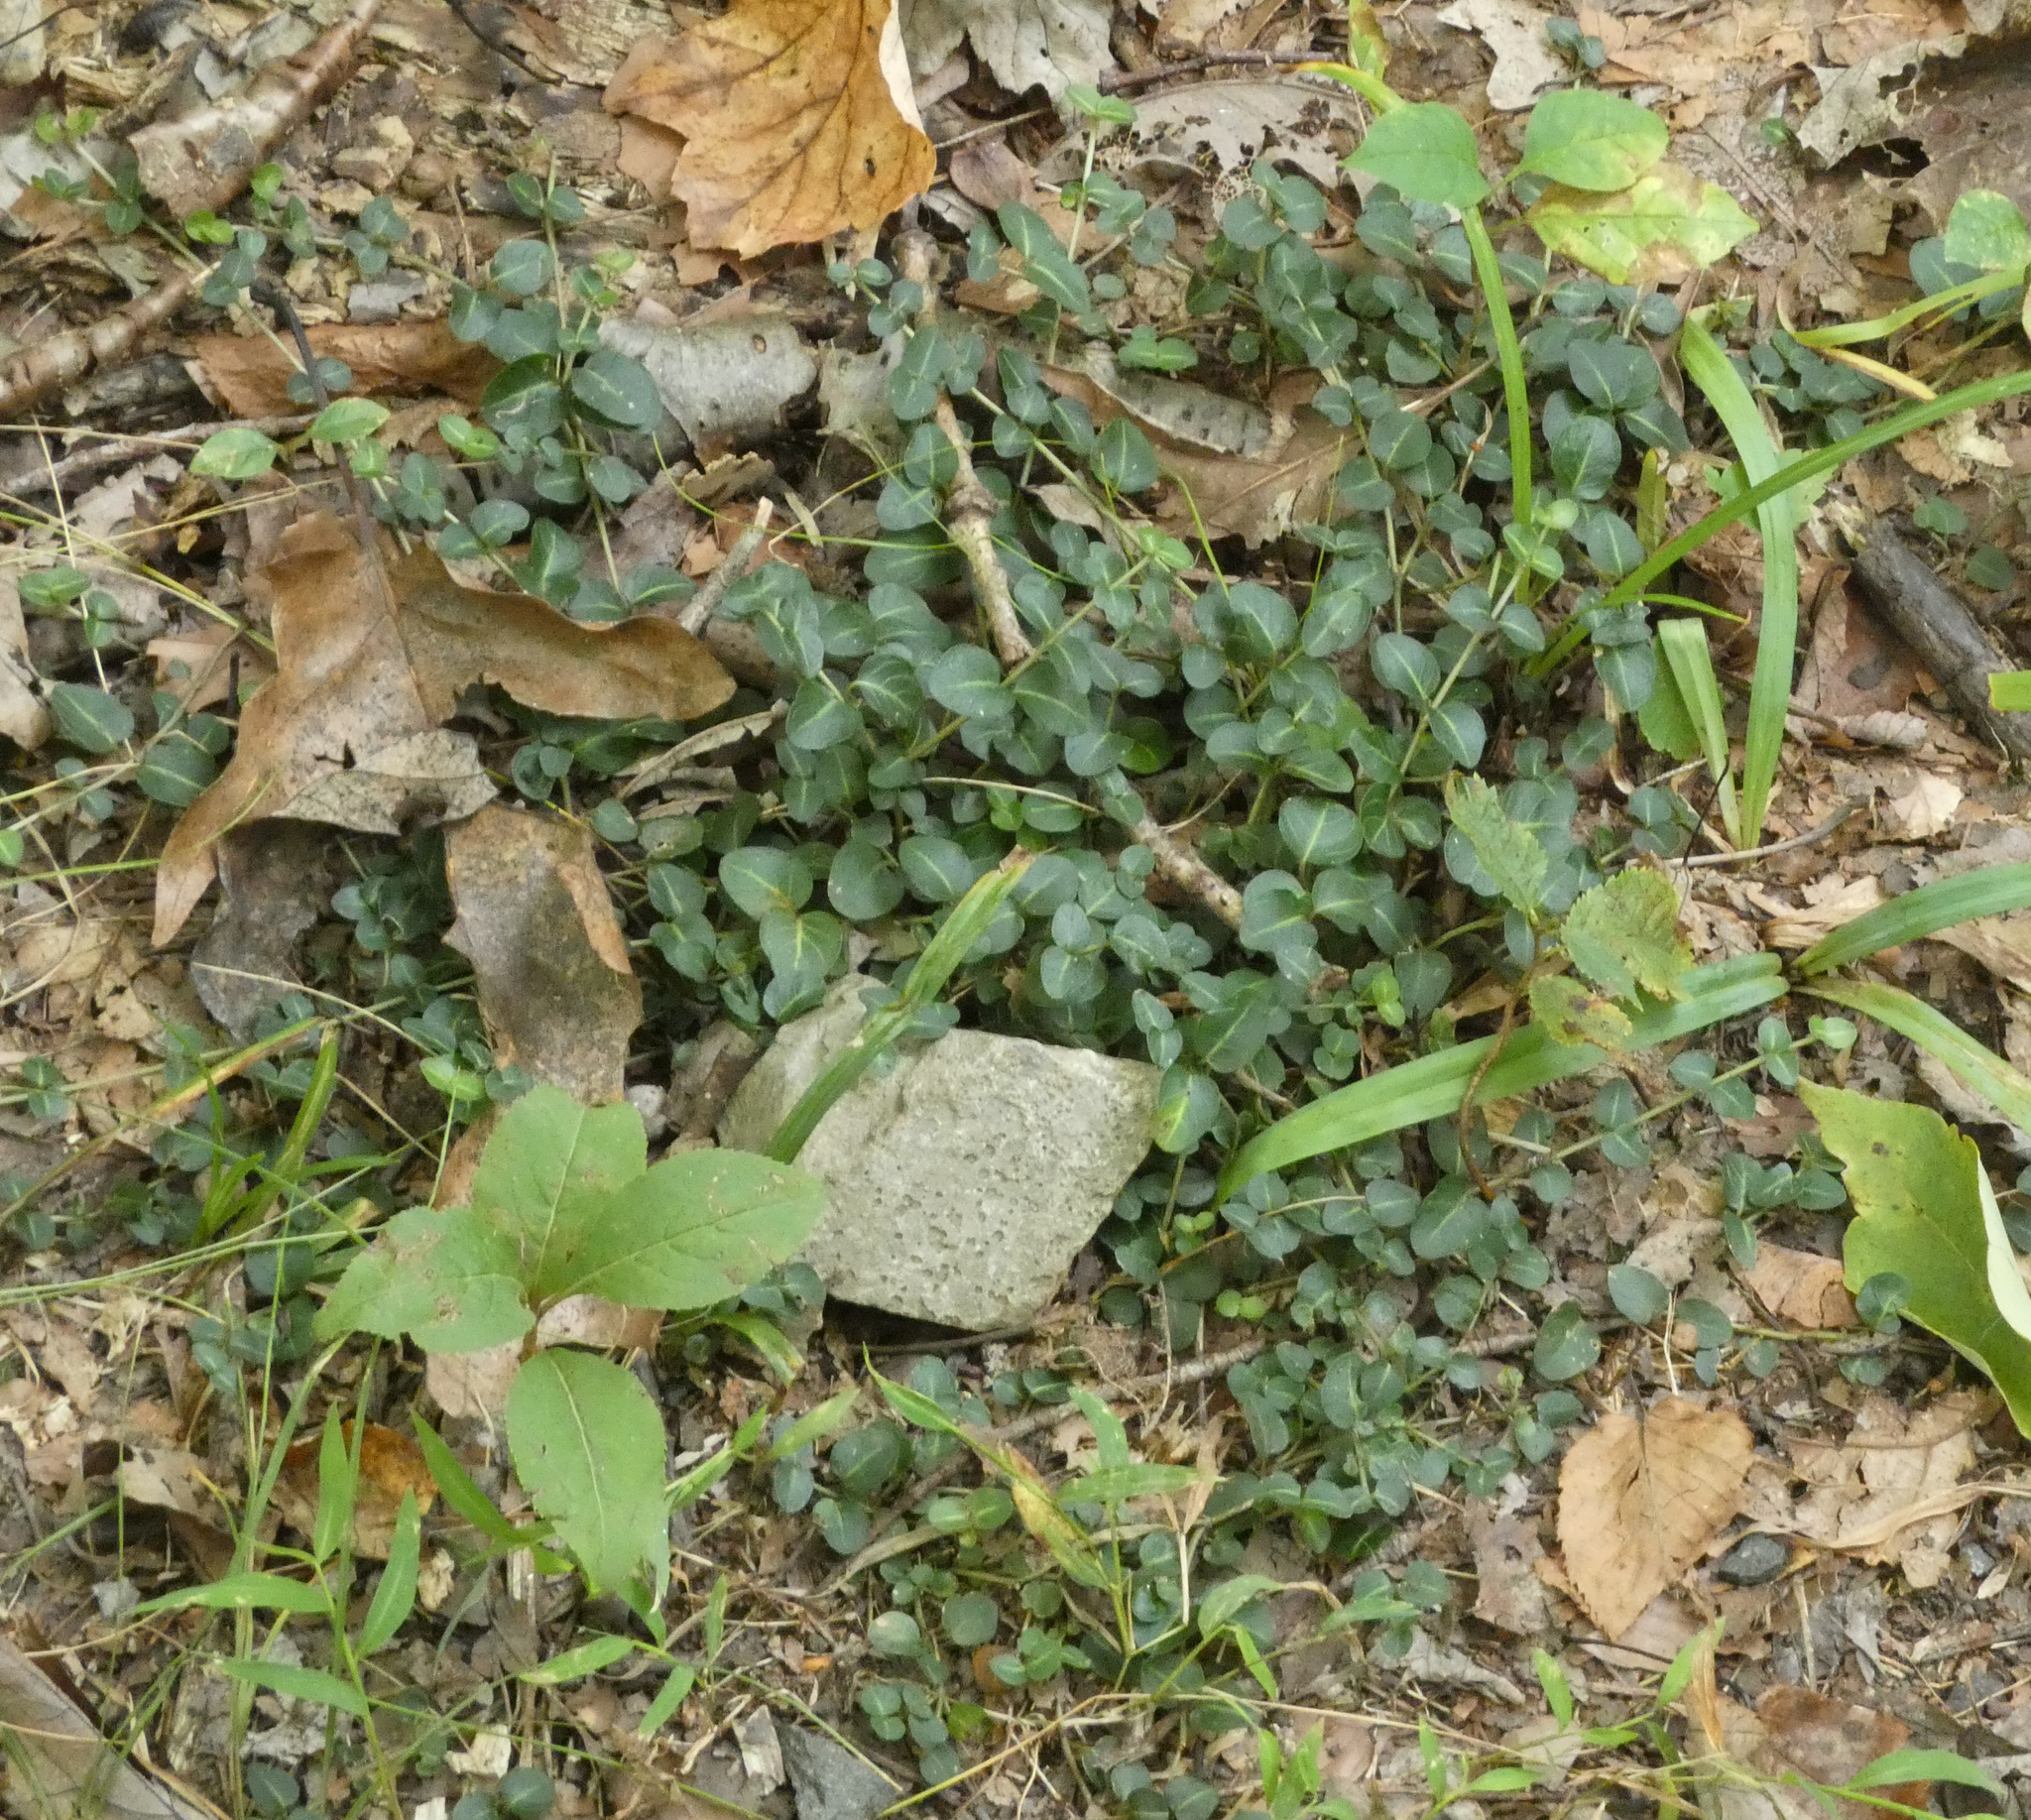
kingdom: Plantae
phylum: Tracheophyta
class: Magnoliopsida
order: Gentianales
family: Rubiaceae
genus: Mitchella
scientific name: Mitchella repens
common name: Partridge-berry
